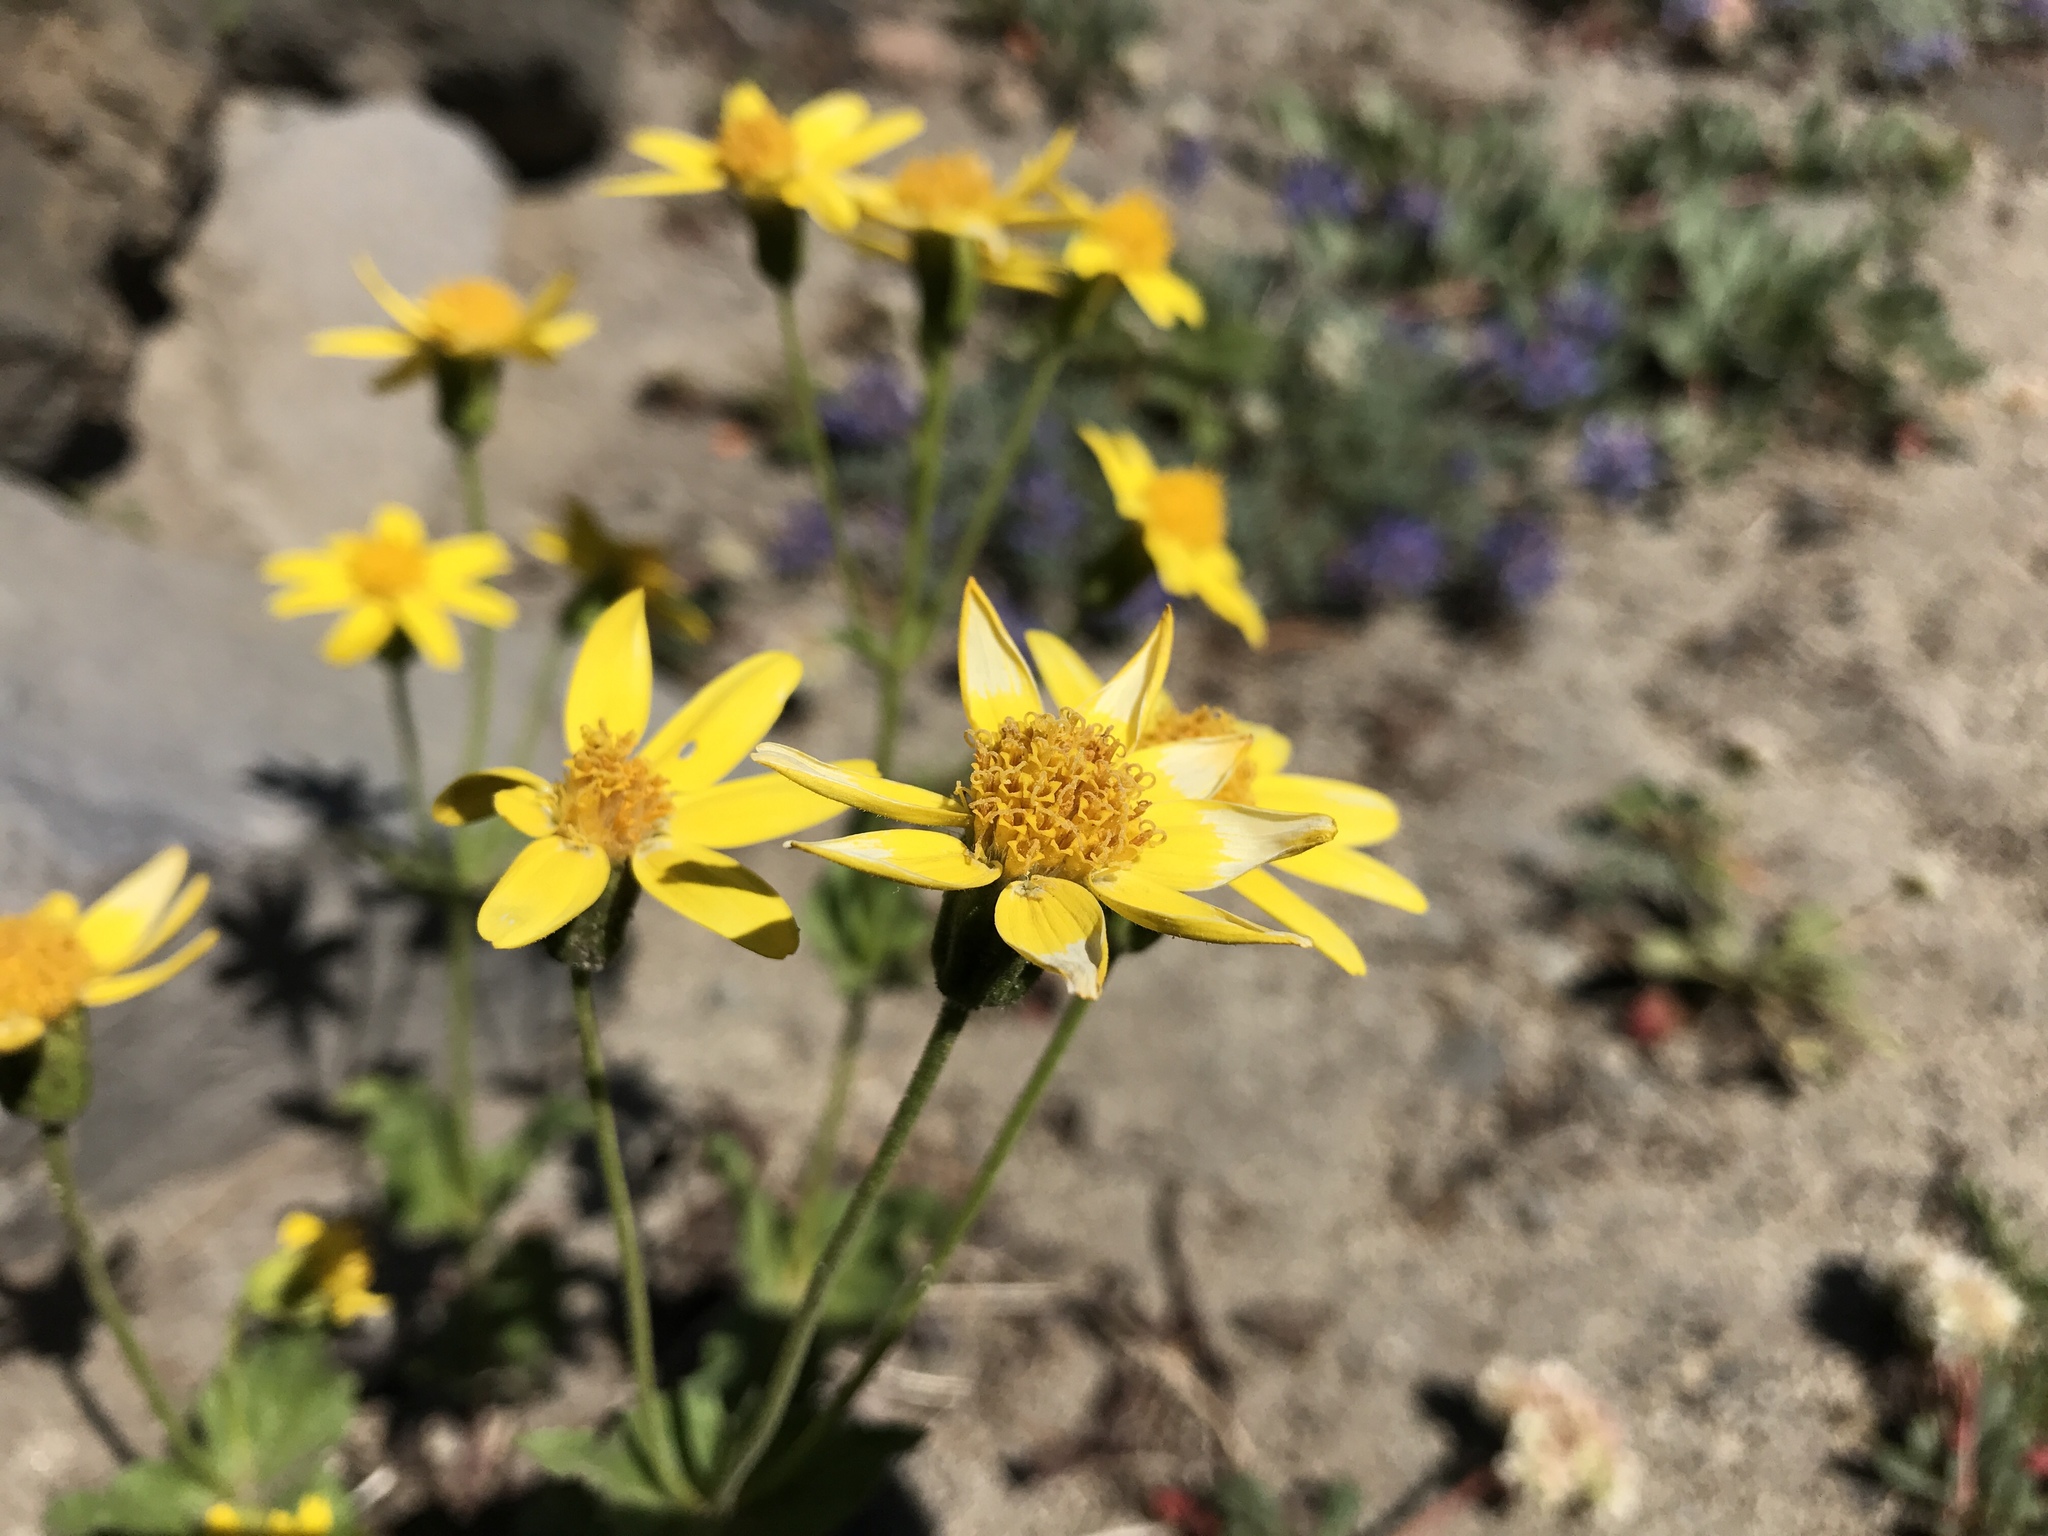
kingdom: Plantae
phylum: Tracheophyta
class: Magnoliopsida
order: Asterales
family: Asteraceae
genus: Arnica
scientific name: Arnica latifolia
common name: Arnica
